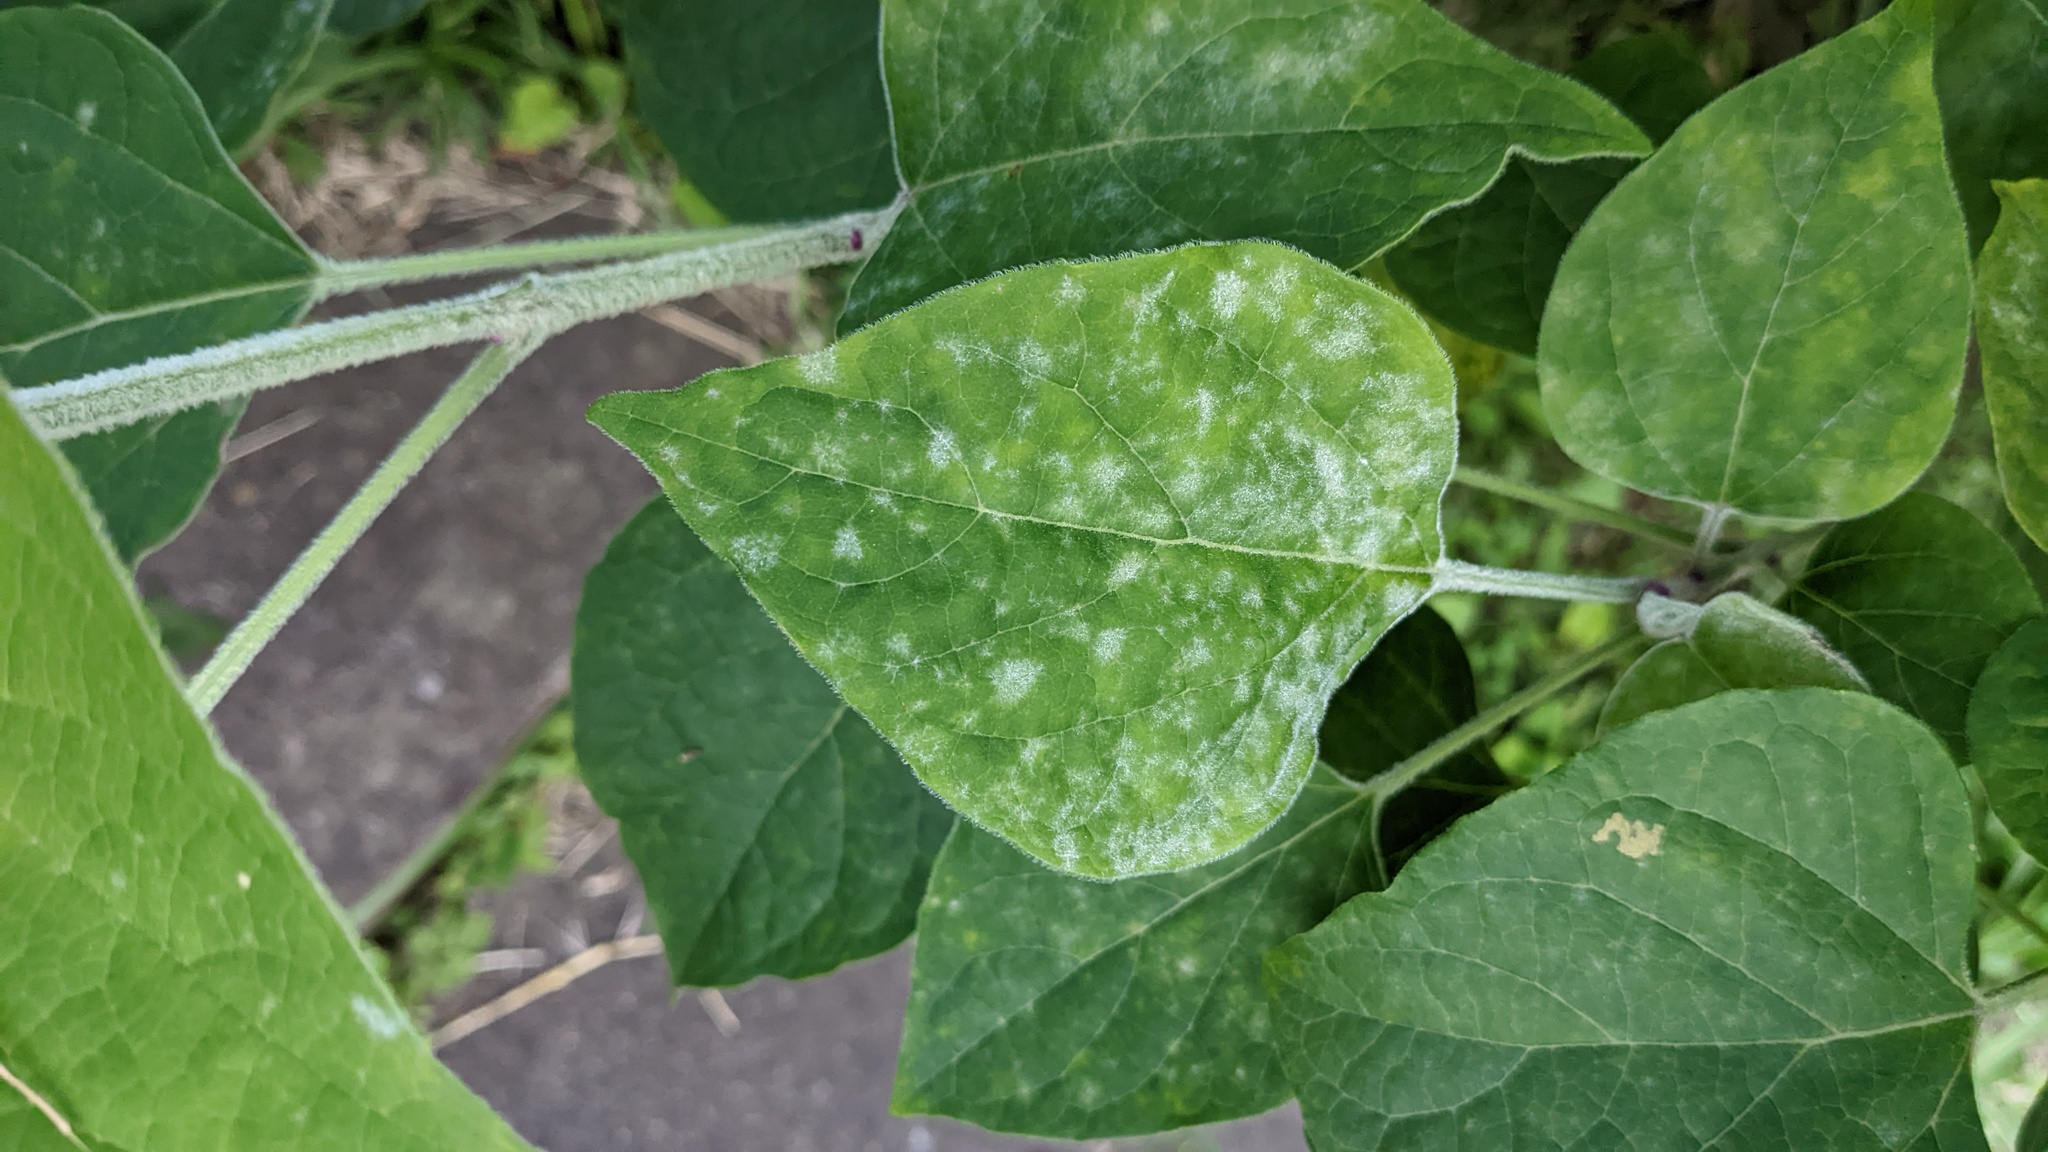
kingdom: Fungi
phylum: Ascomycota
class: Leotiomycetes
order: Helotiales
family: Erysiphaceae
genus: Podosphaera
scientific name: Podosphaera intermedia
